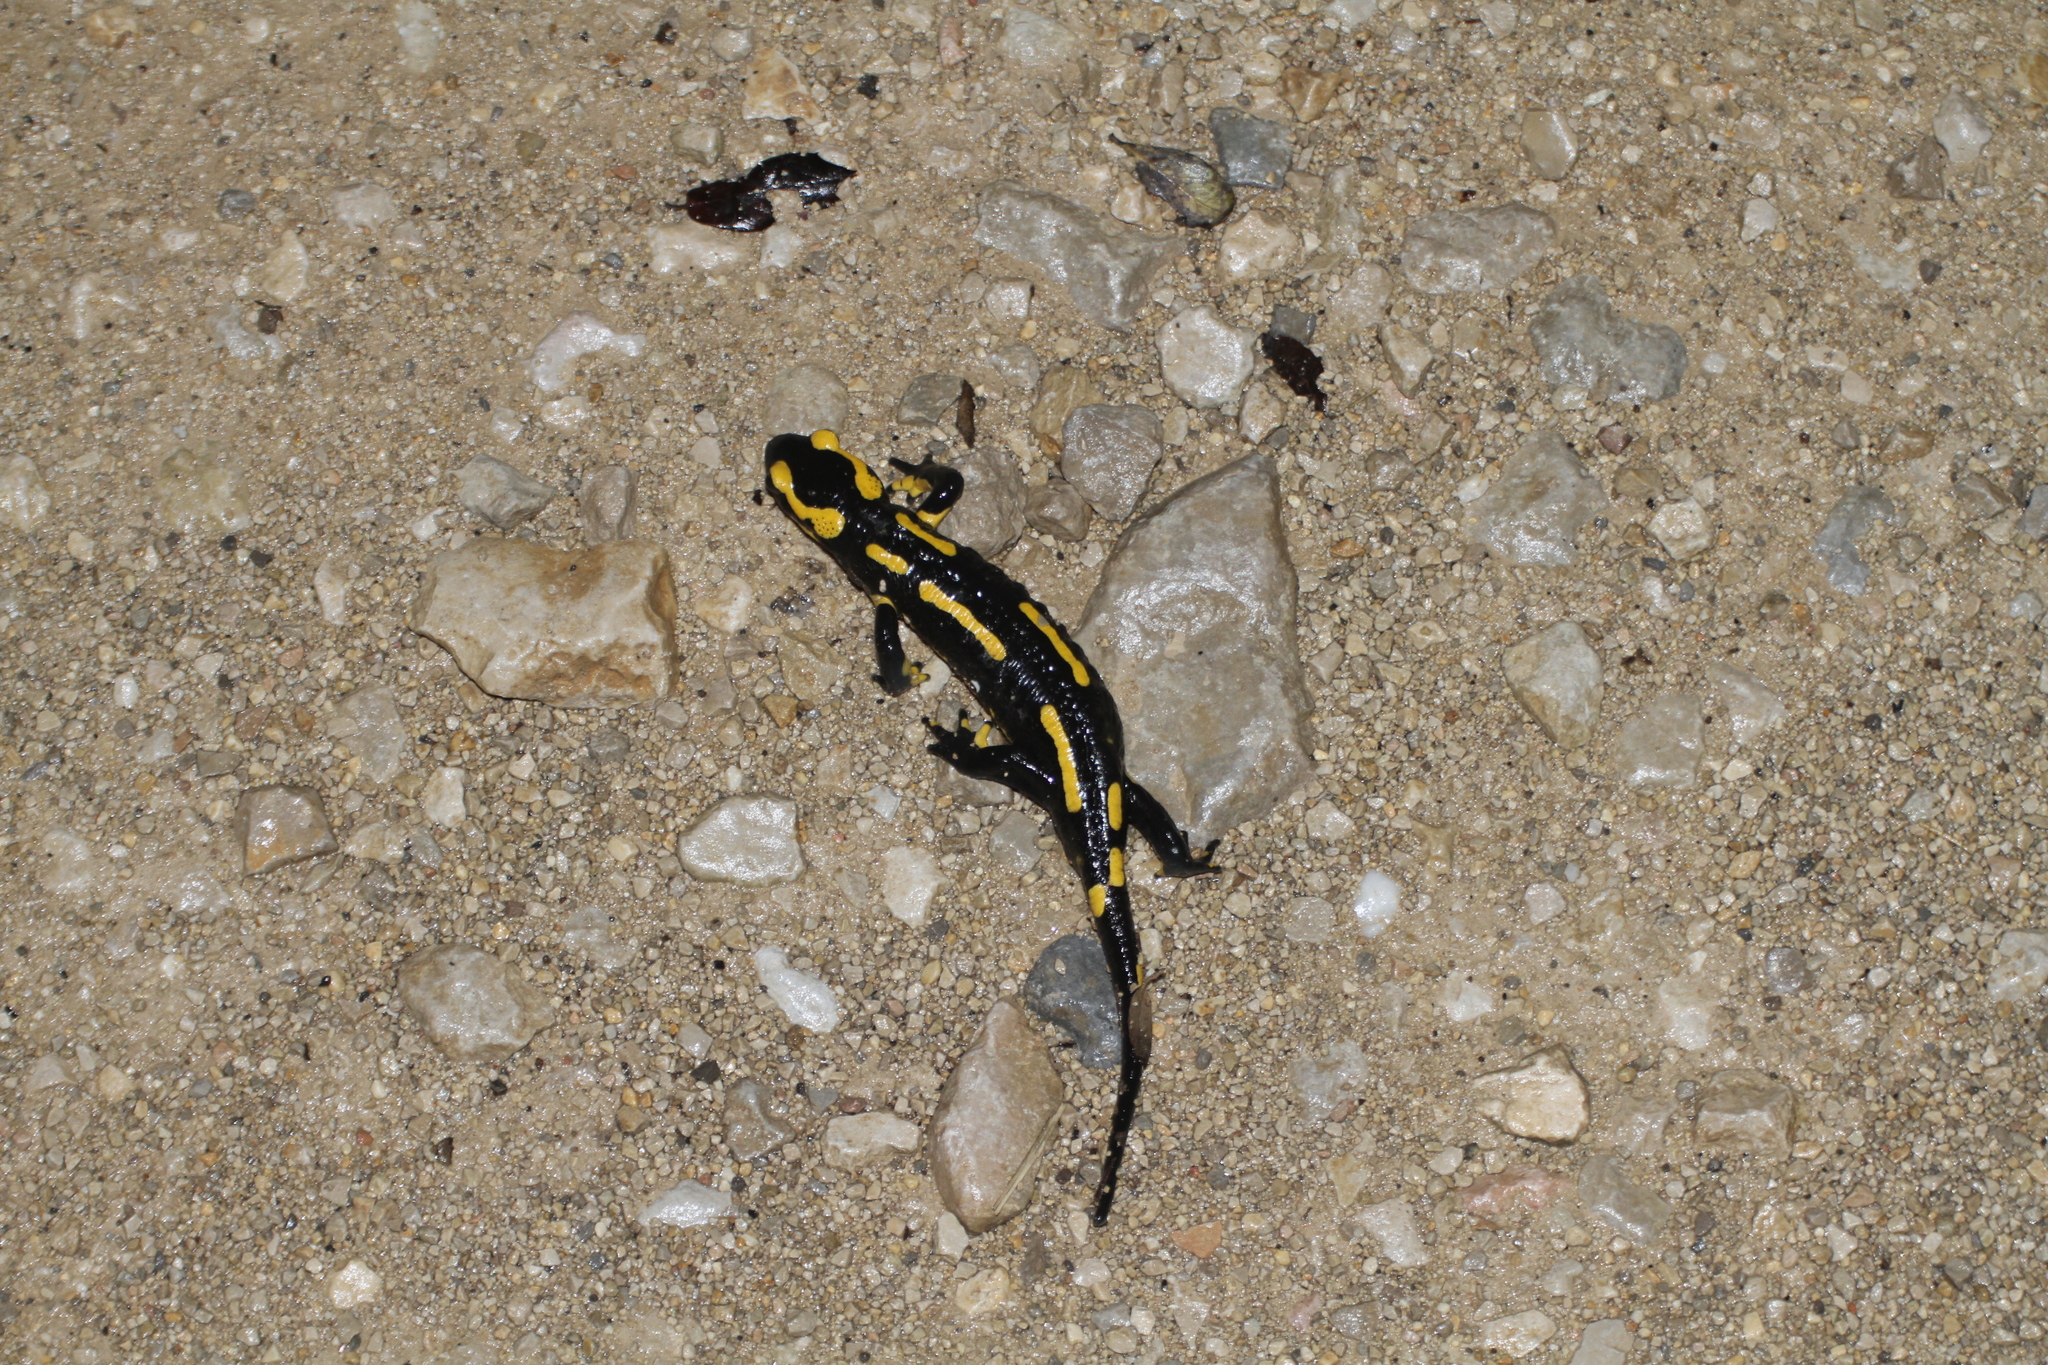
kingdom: Animalia
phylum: Chordata
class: Amphibia
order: Caudata
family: Salamandridae
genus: Salamandra
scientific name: Salamandra salamandra
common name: Fire salamander
